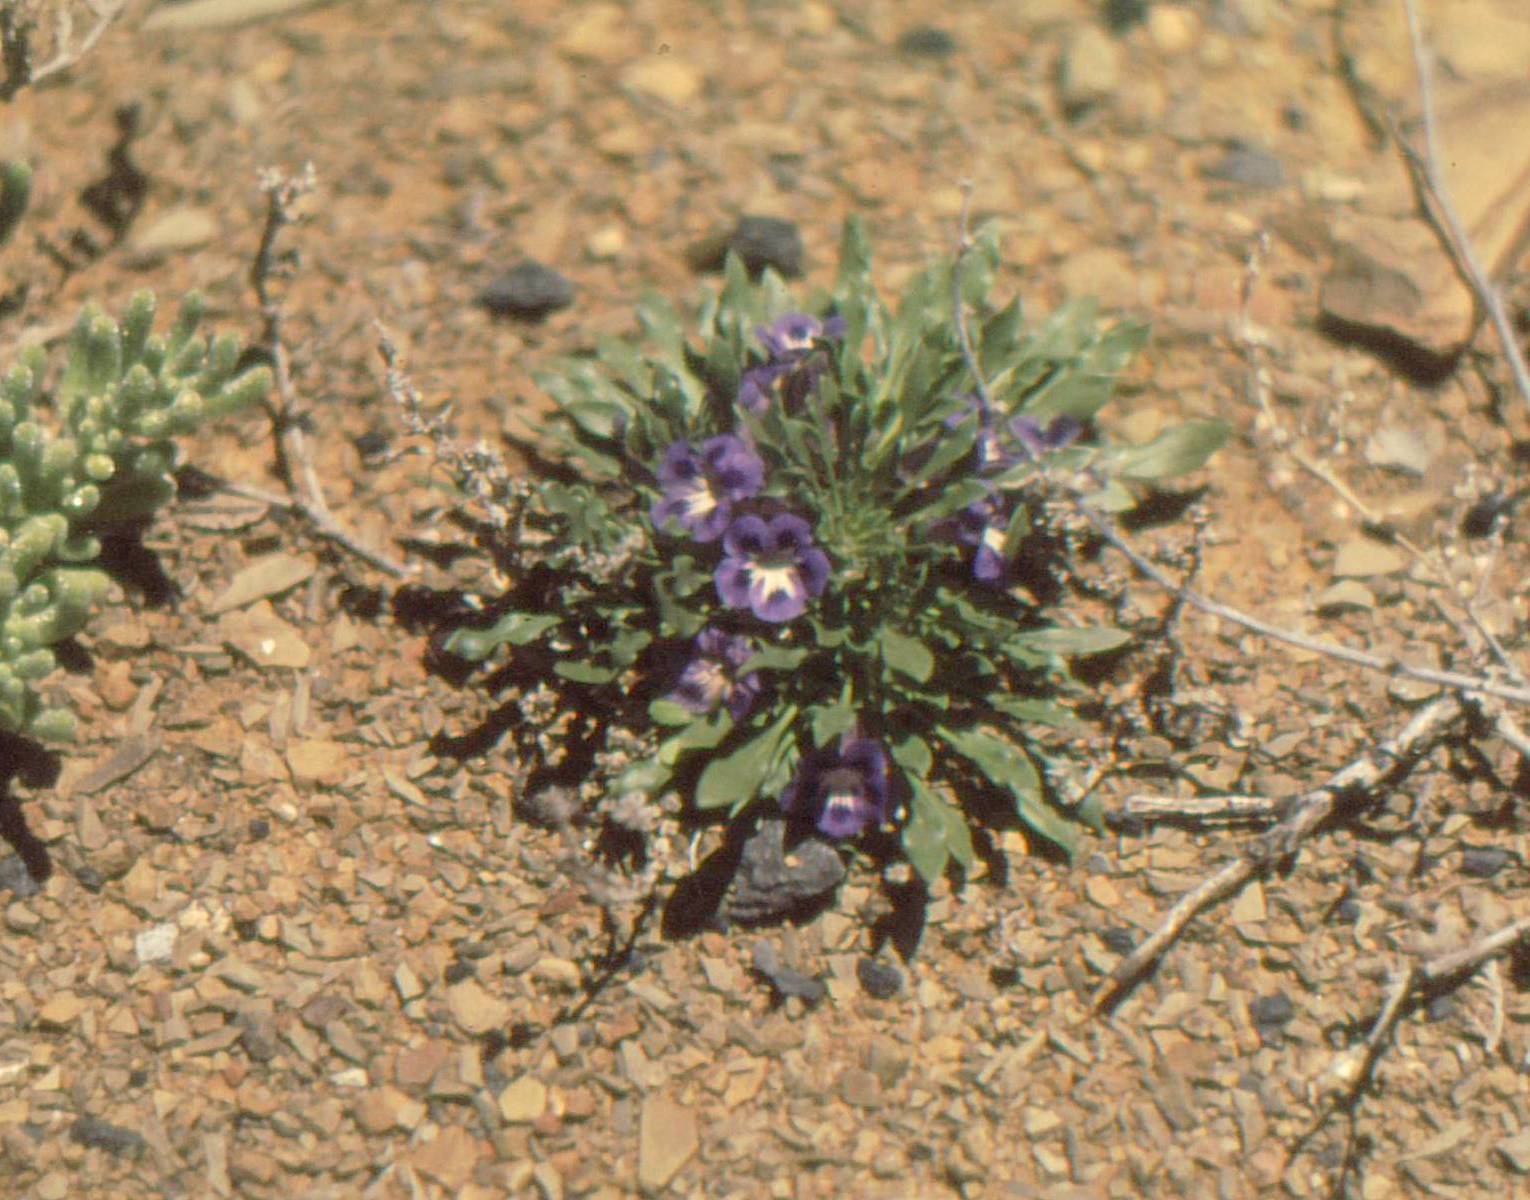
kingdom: Plantae
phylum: Tracheophyta
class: Magnoliopsida
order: Lamiales
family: Scrophulariaceae
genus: Aptosimum
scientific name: Aptosimum indivisum
